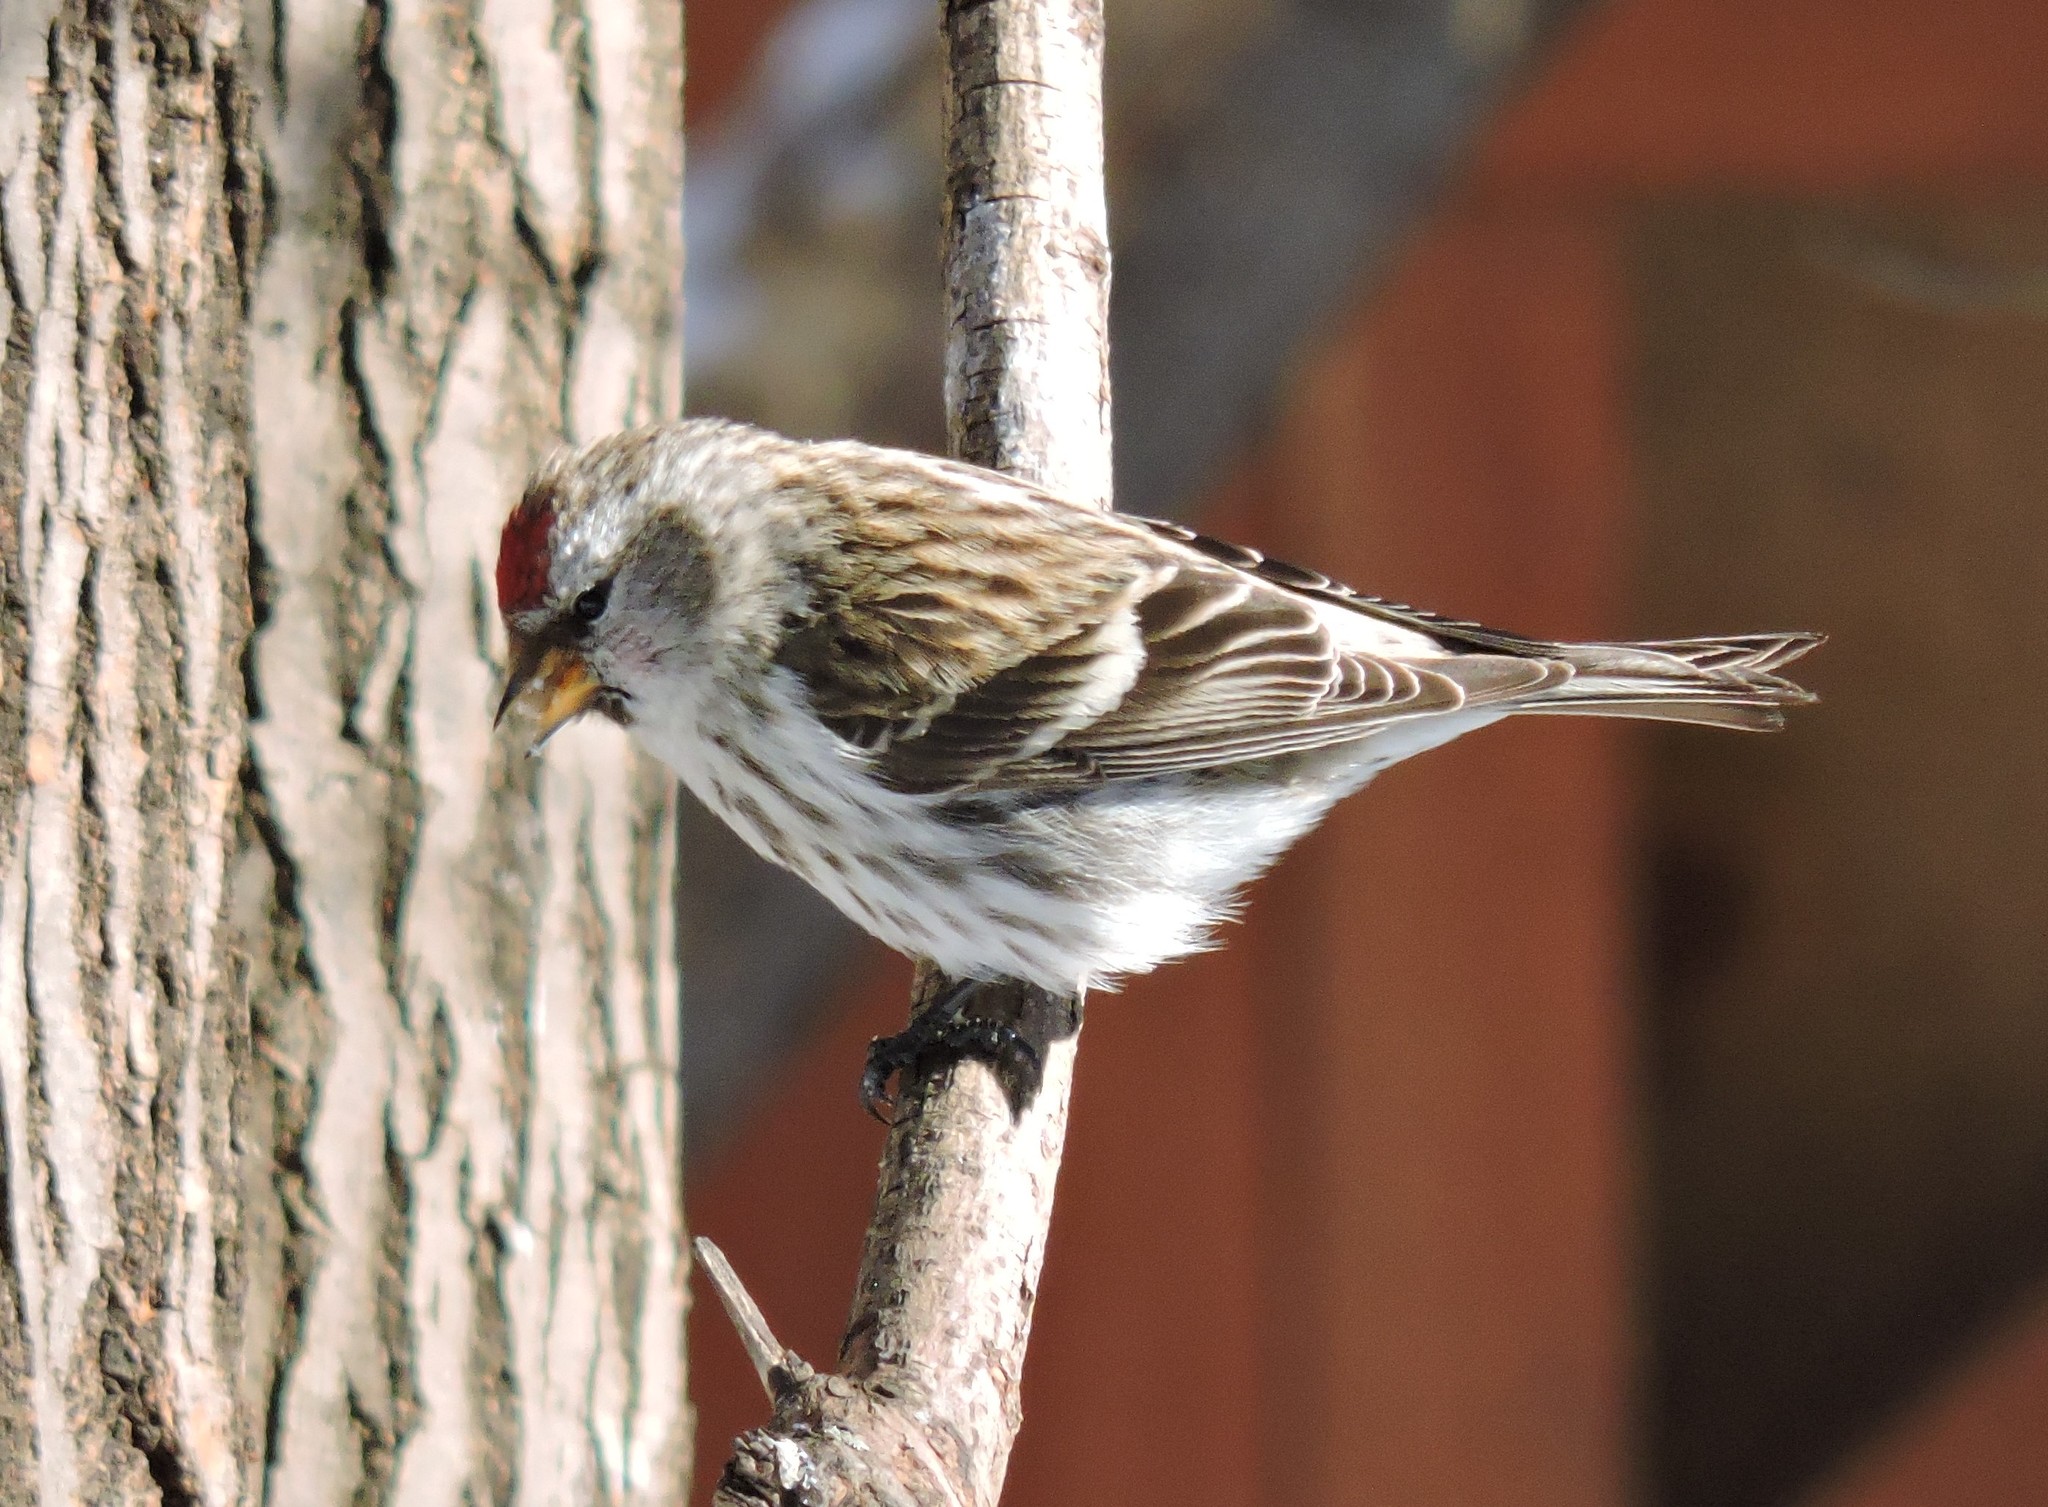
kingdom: Animalia
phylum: Chordata
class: Aves
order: Passeriformes
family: Fringillidae
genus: Acanthis
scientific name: Acanthis flammea
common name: Common redpoll
